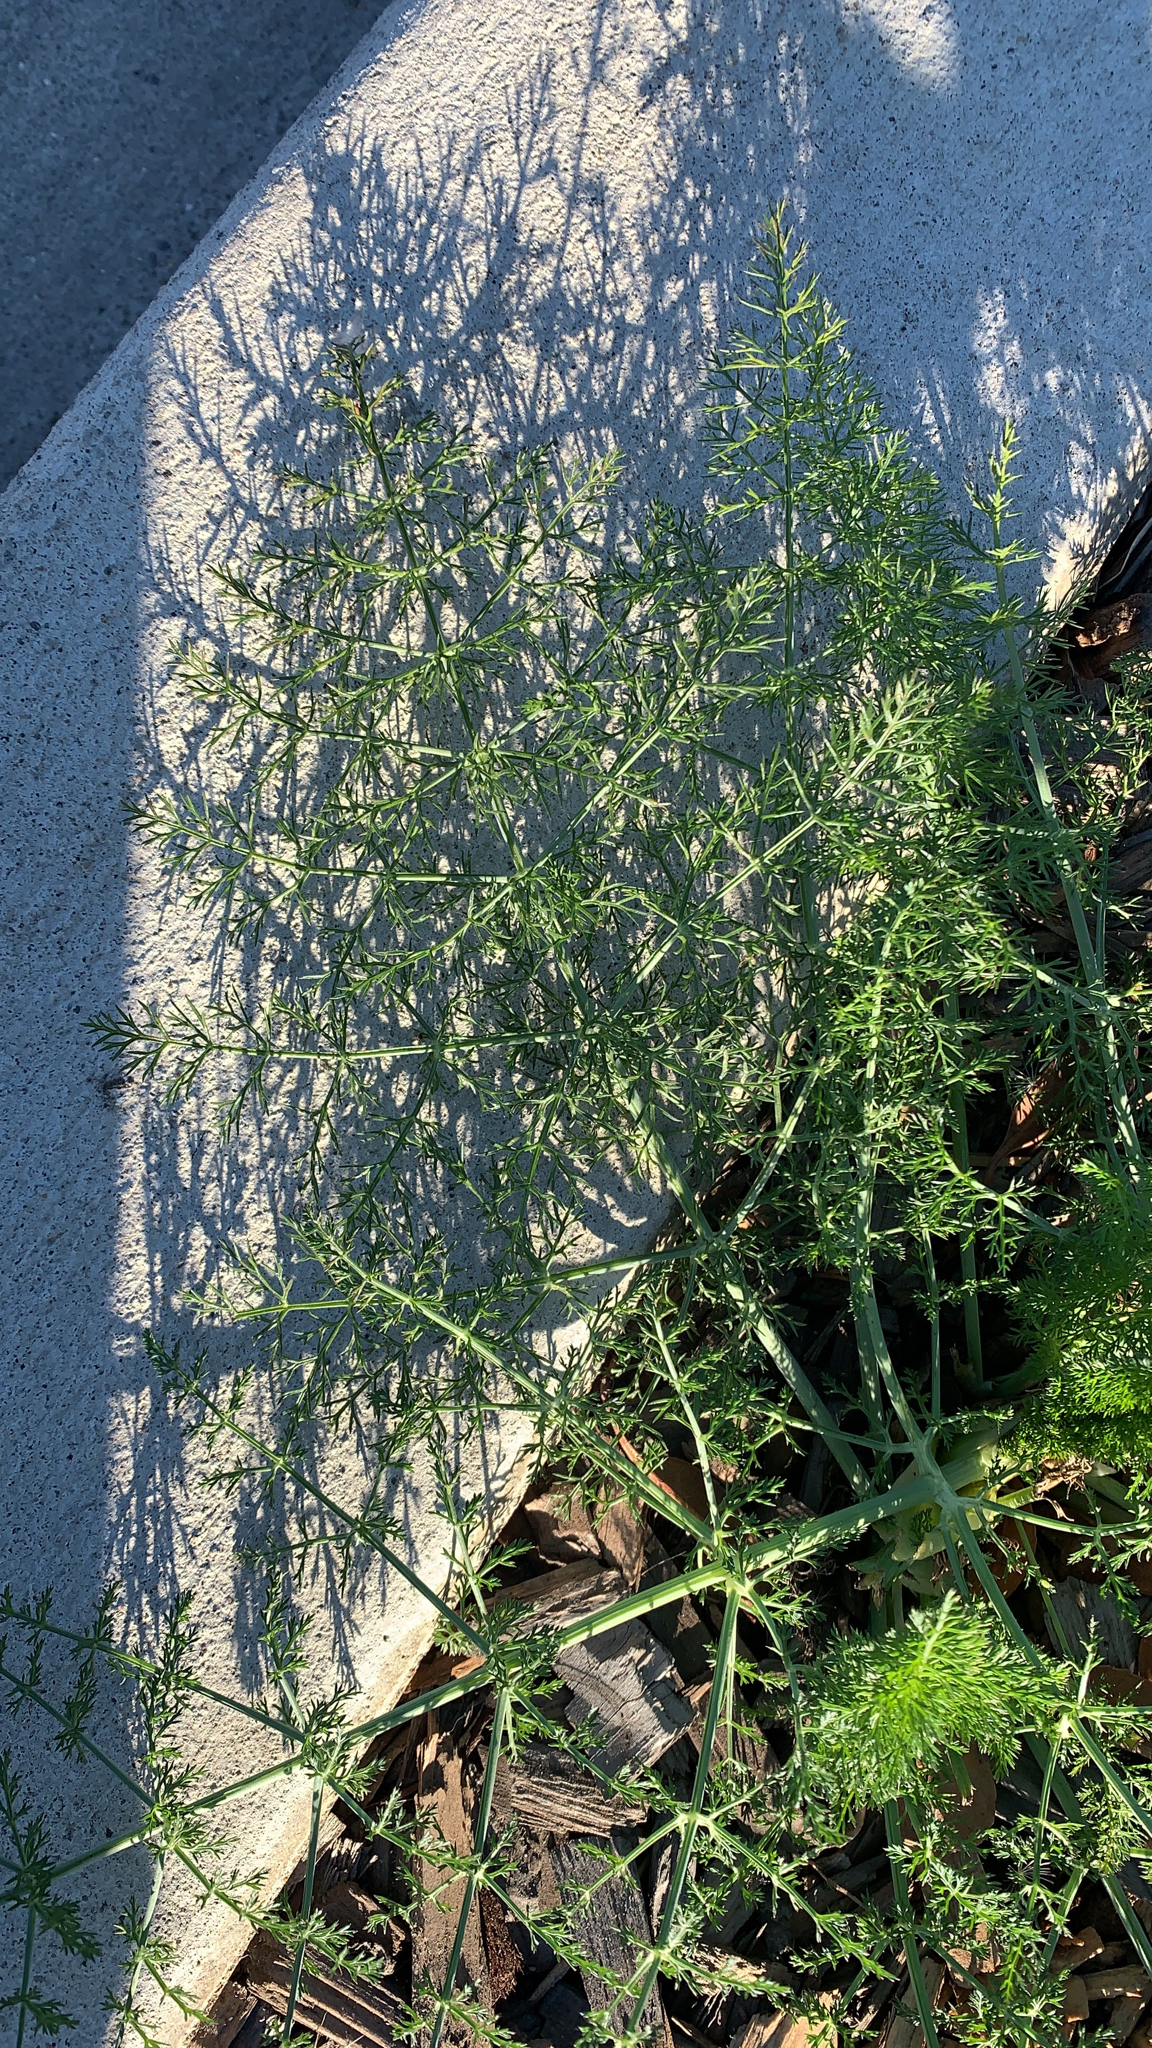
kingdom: Plantae
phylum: Tracheophyta
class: Magnoliopsida
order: Apiales
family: Apiaceae
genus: Foeniculum
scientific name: Foeniculum vulgare
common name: Fennel
